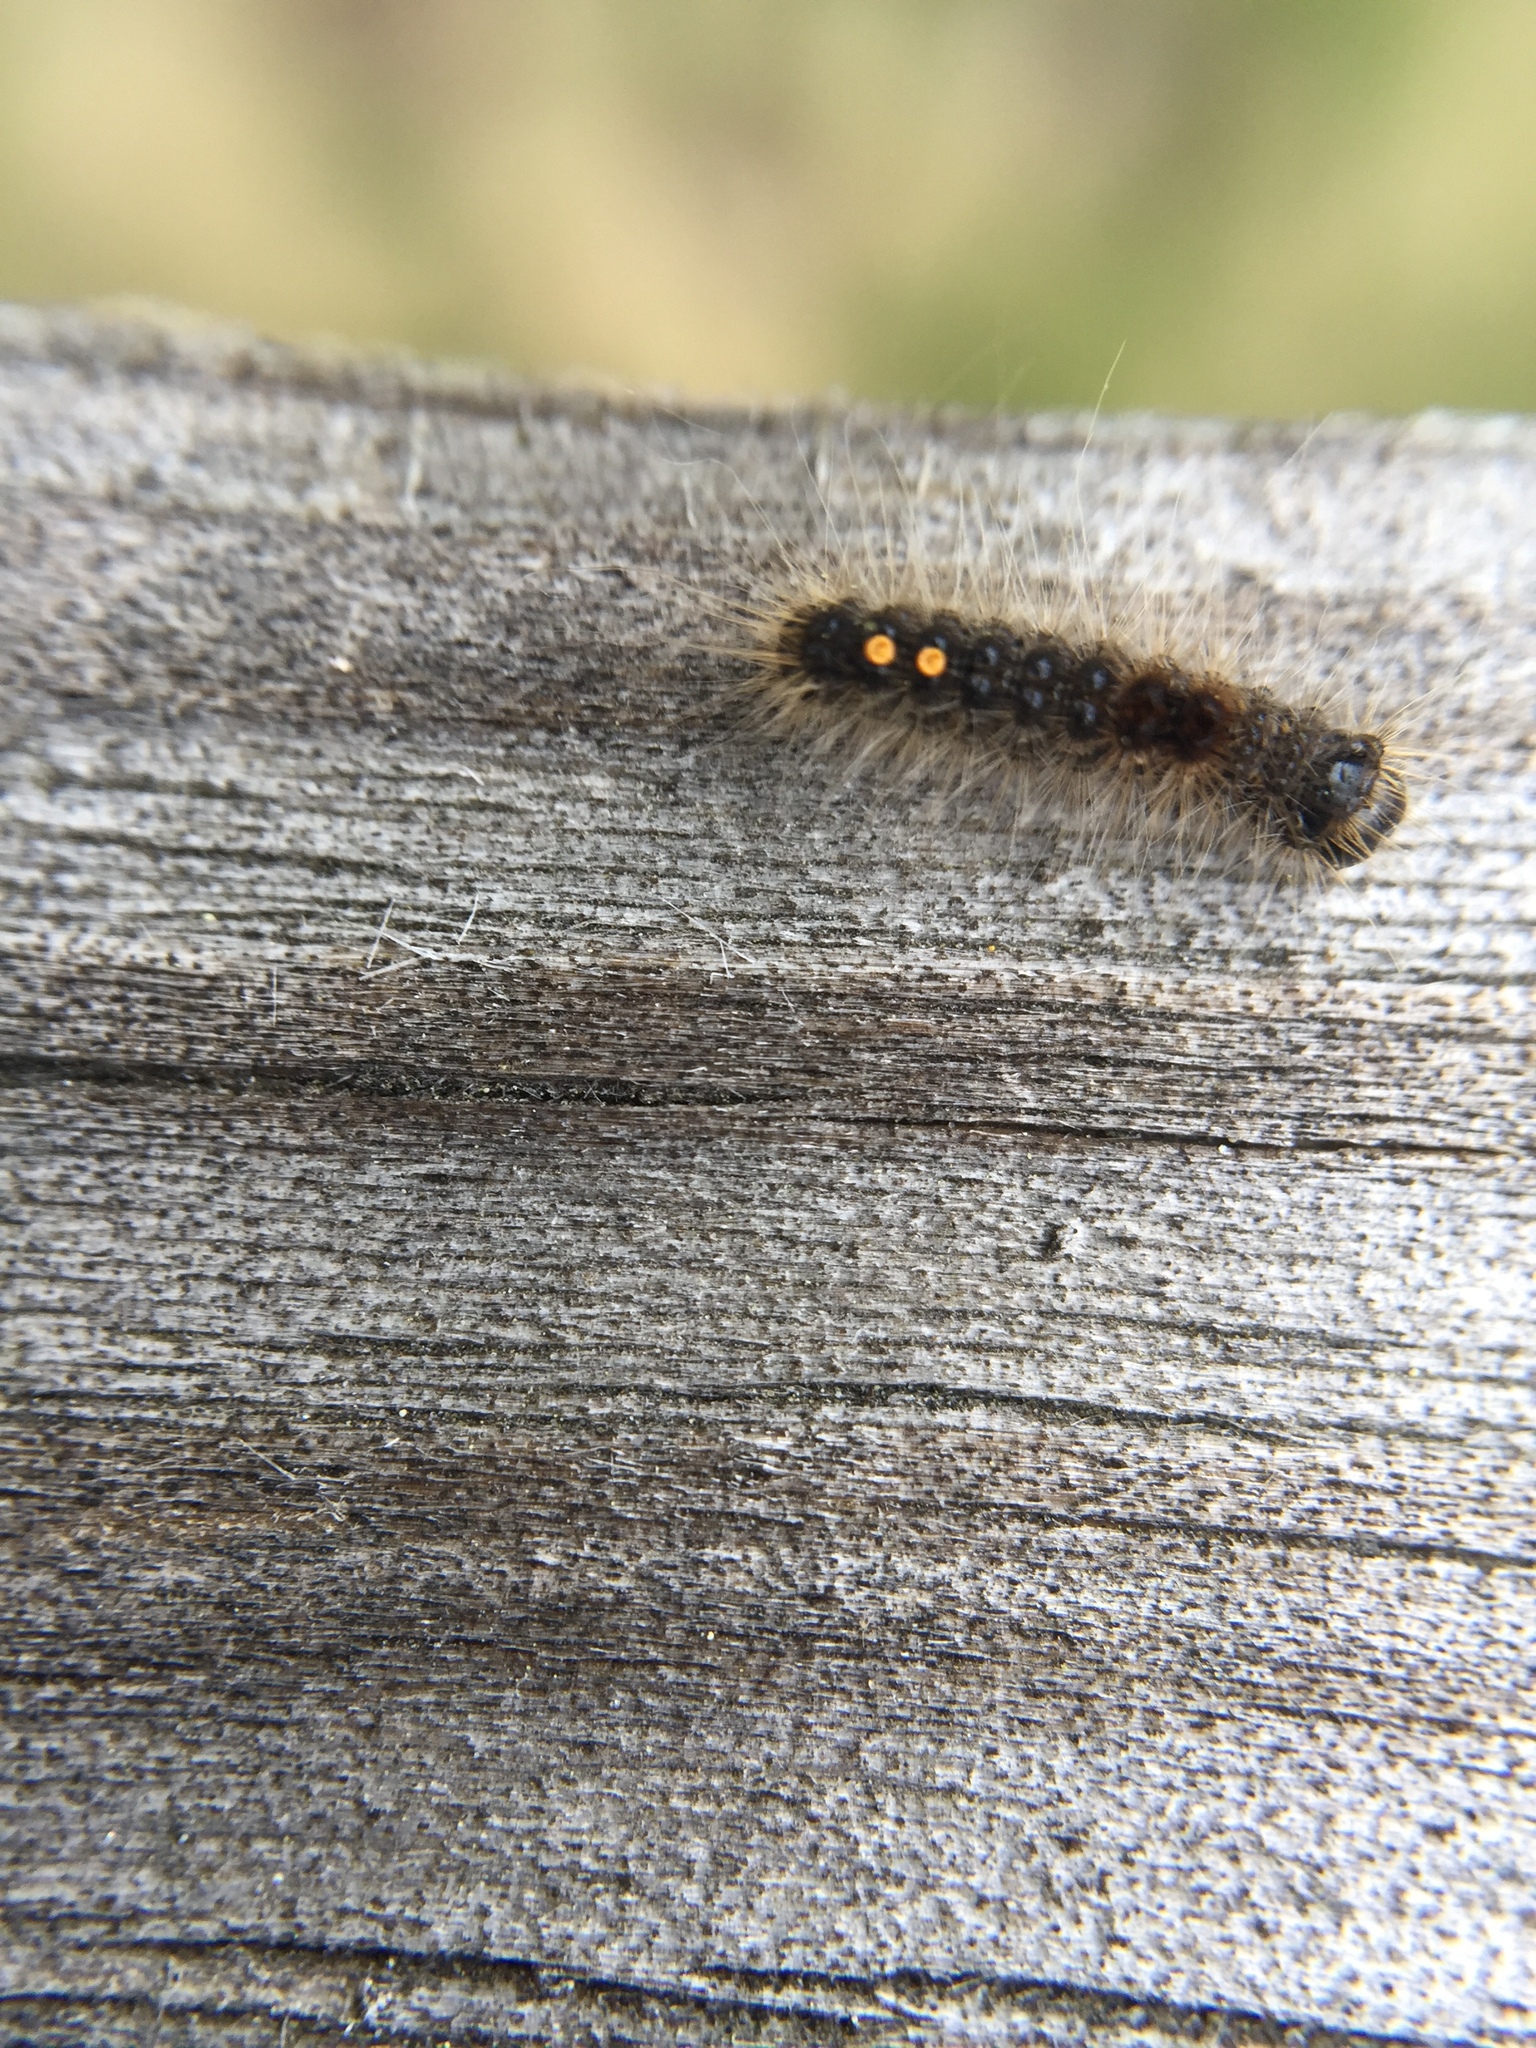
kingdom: Animalia
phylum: Arthropoda
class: Insecta
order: Lepidoptera
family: Erebidae
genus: Euproctis
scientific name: Euproctis chrysorrhoea
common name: Brown-tail
